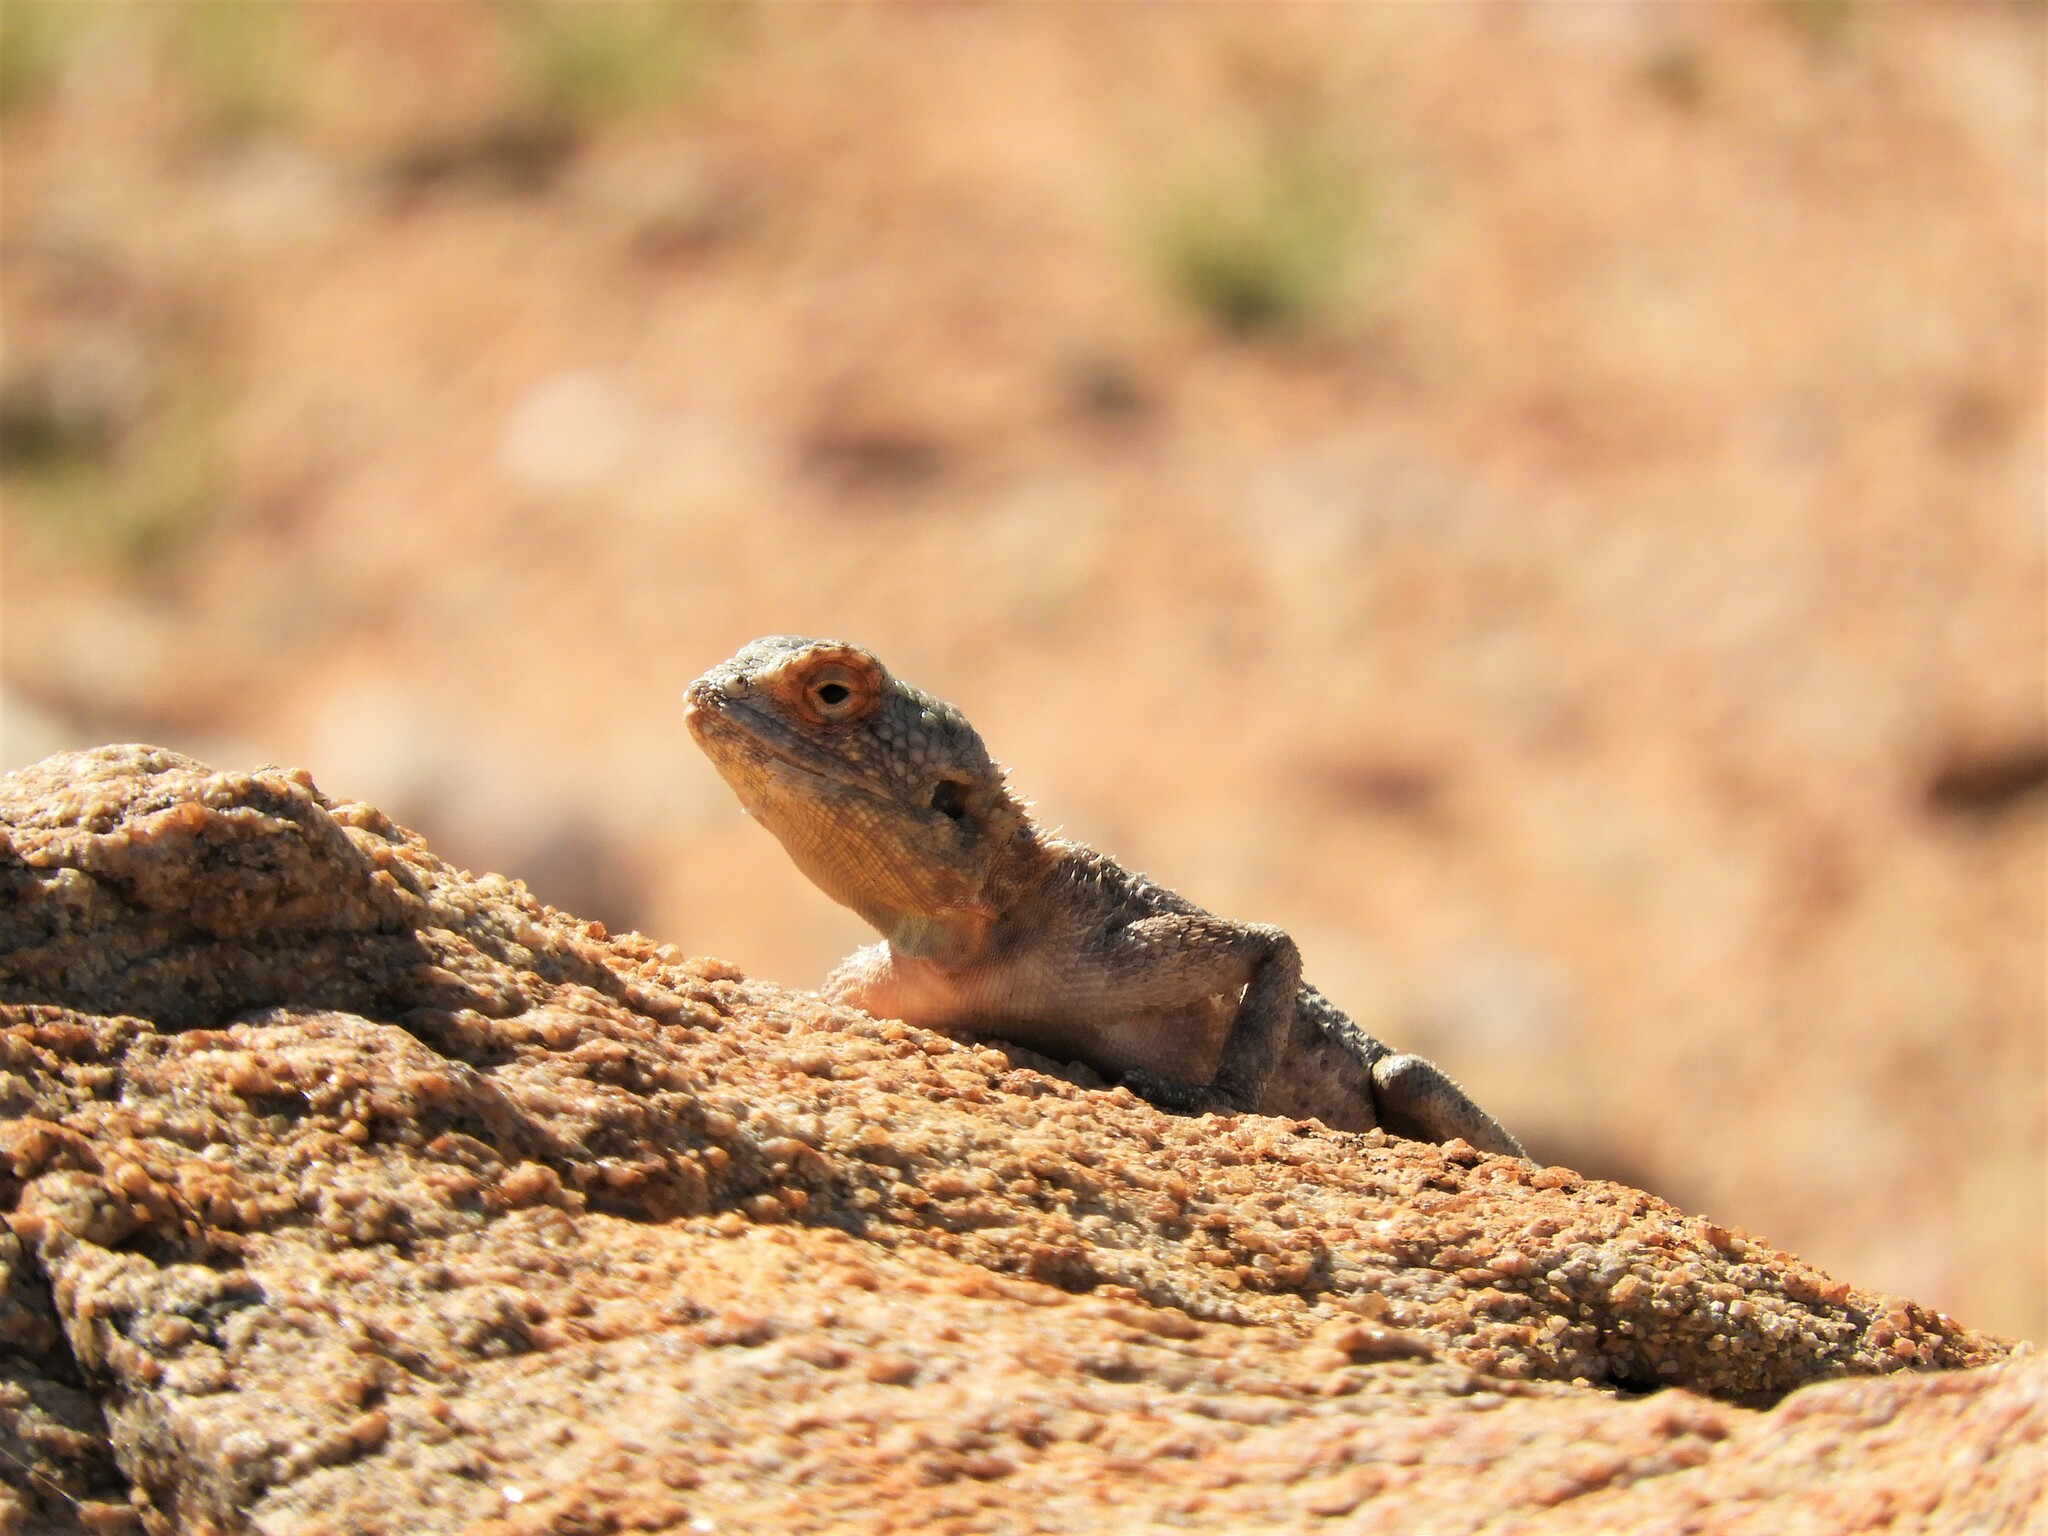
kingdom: Animalia
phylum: Chordata
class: Squamata
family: Agamidae
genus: Agama
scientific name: Agama anchietae
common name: Anchieta's agama
